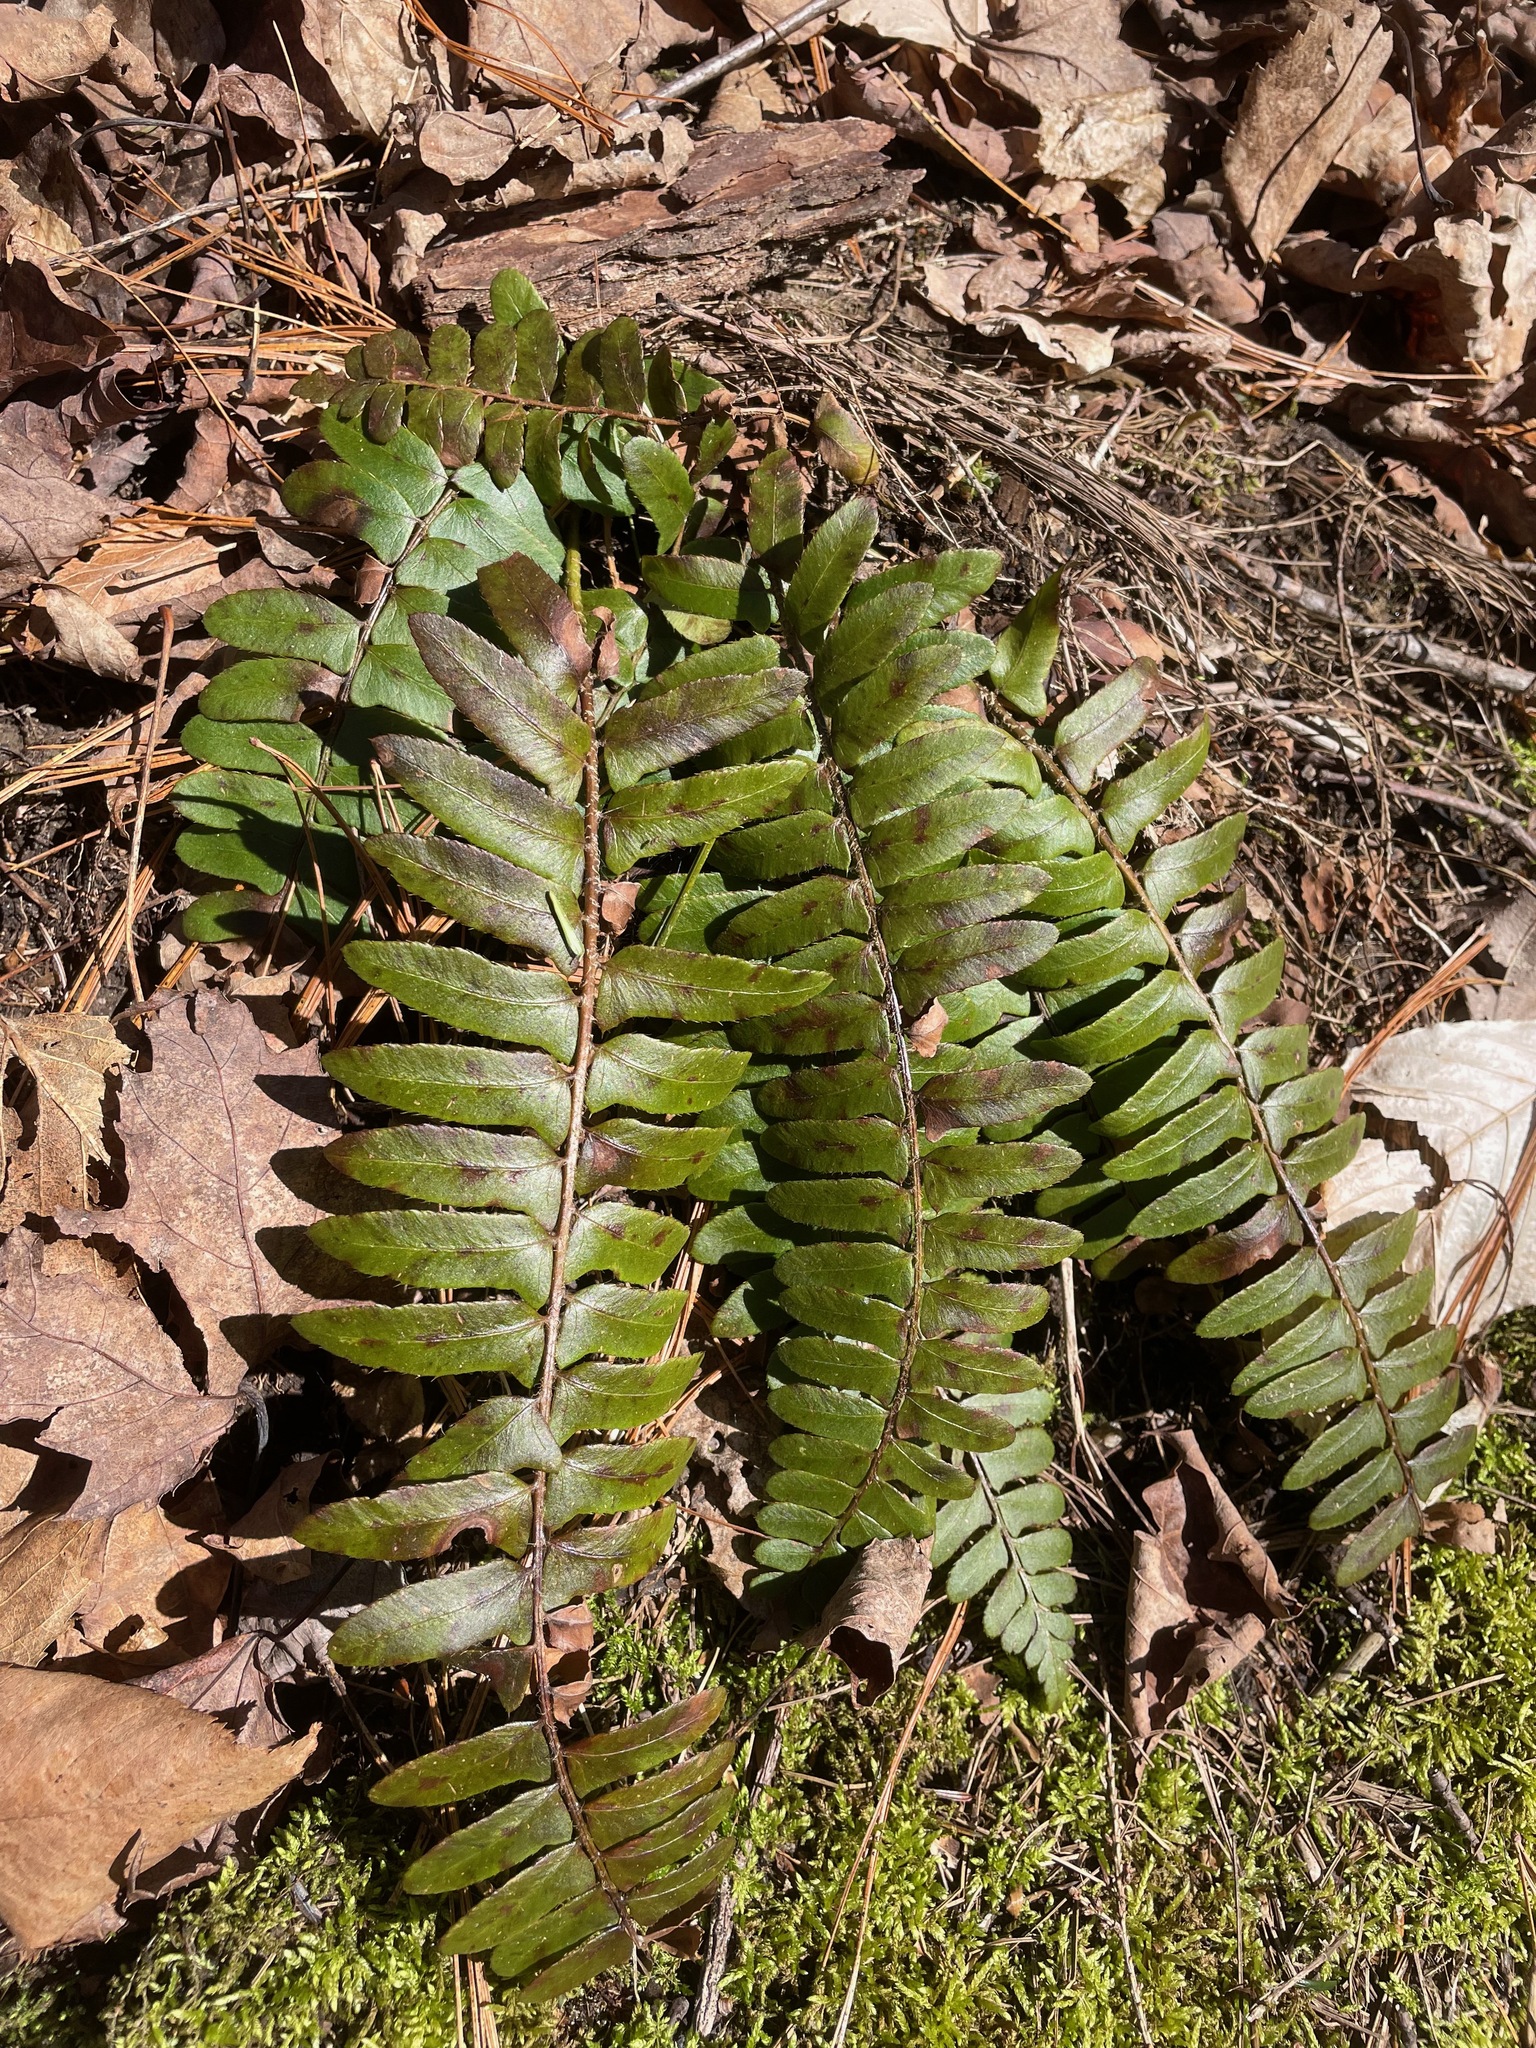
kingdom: Plantae
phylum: Tracheophyta
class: Polypodiopsida
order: Polypodiales
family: Dryopteridaceae
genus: Polystichum
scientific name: Polystichum acrostichoides
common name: Christmas fern
